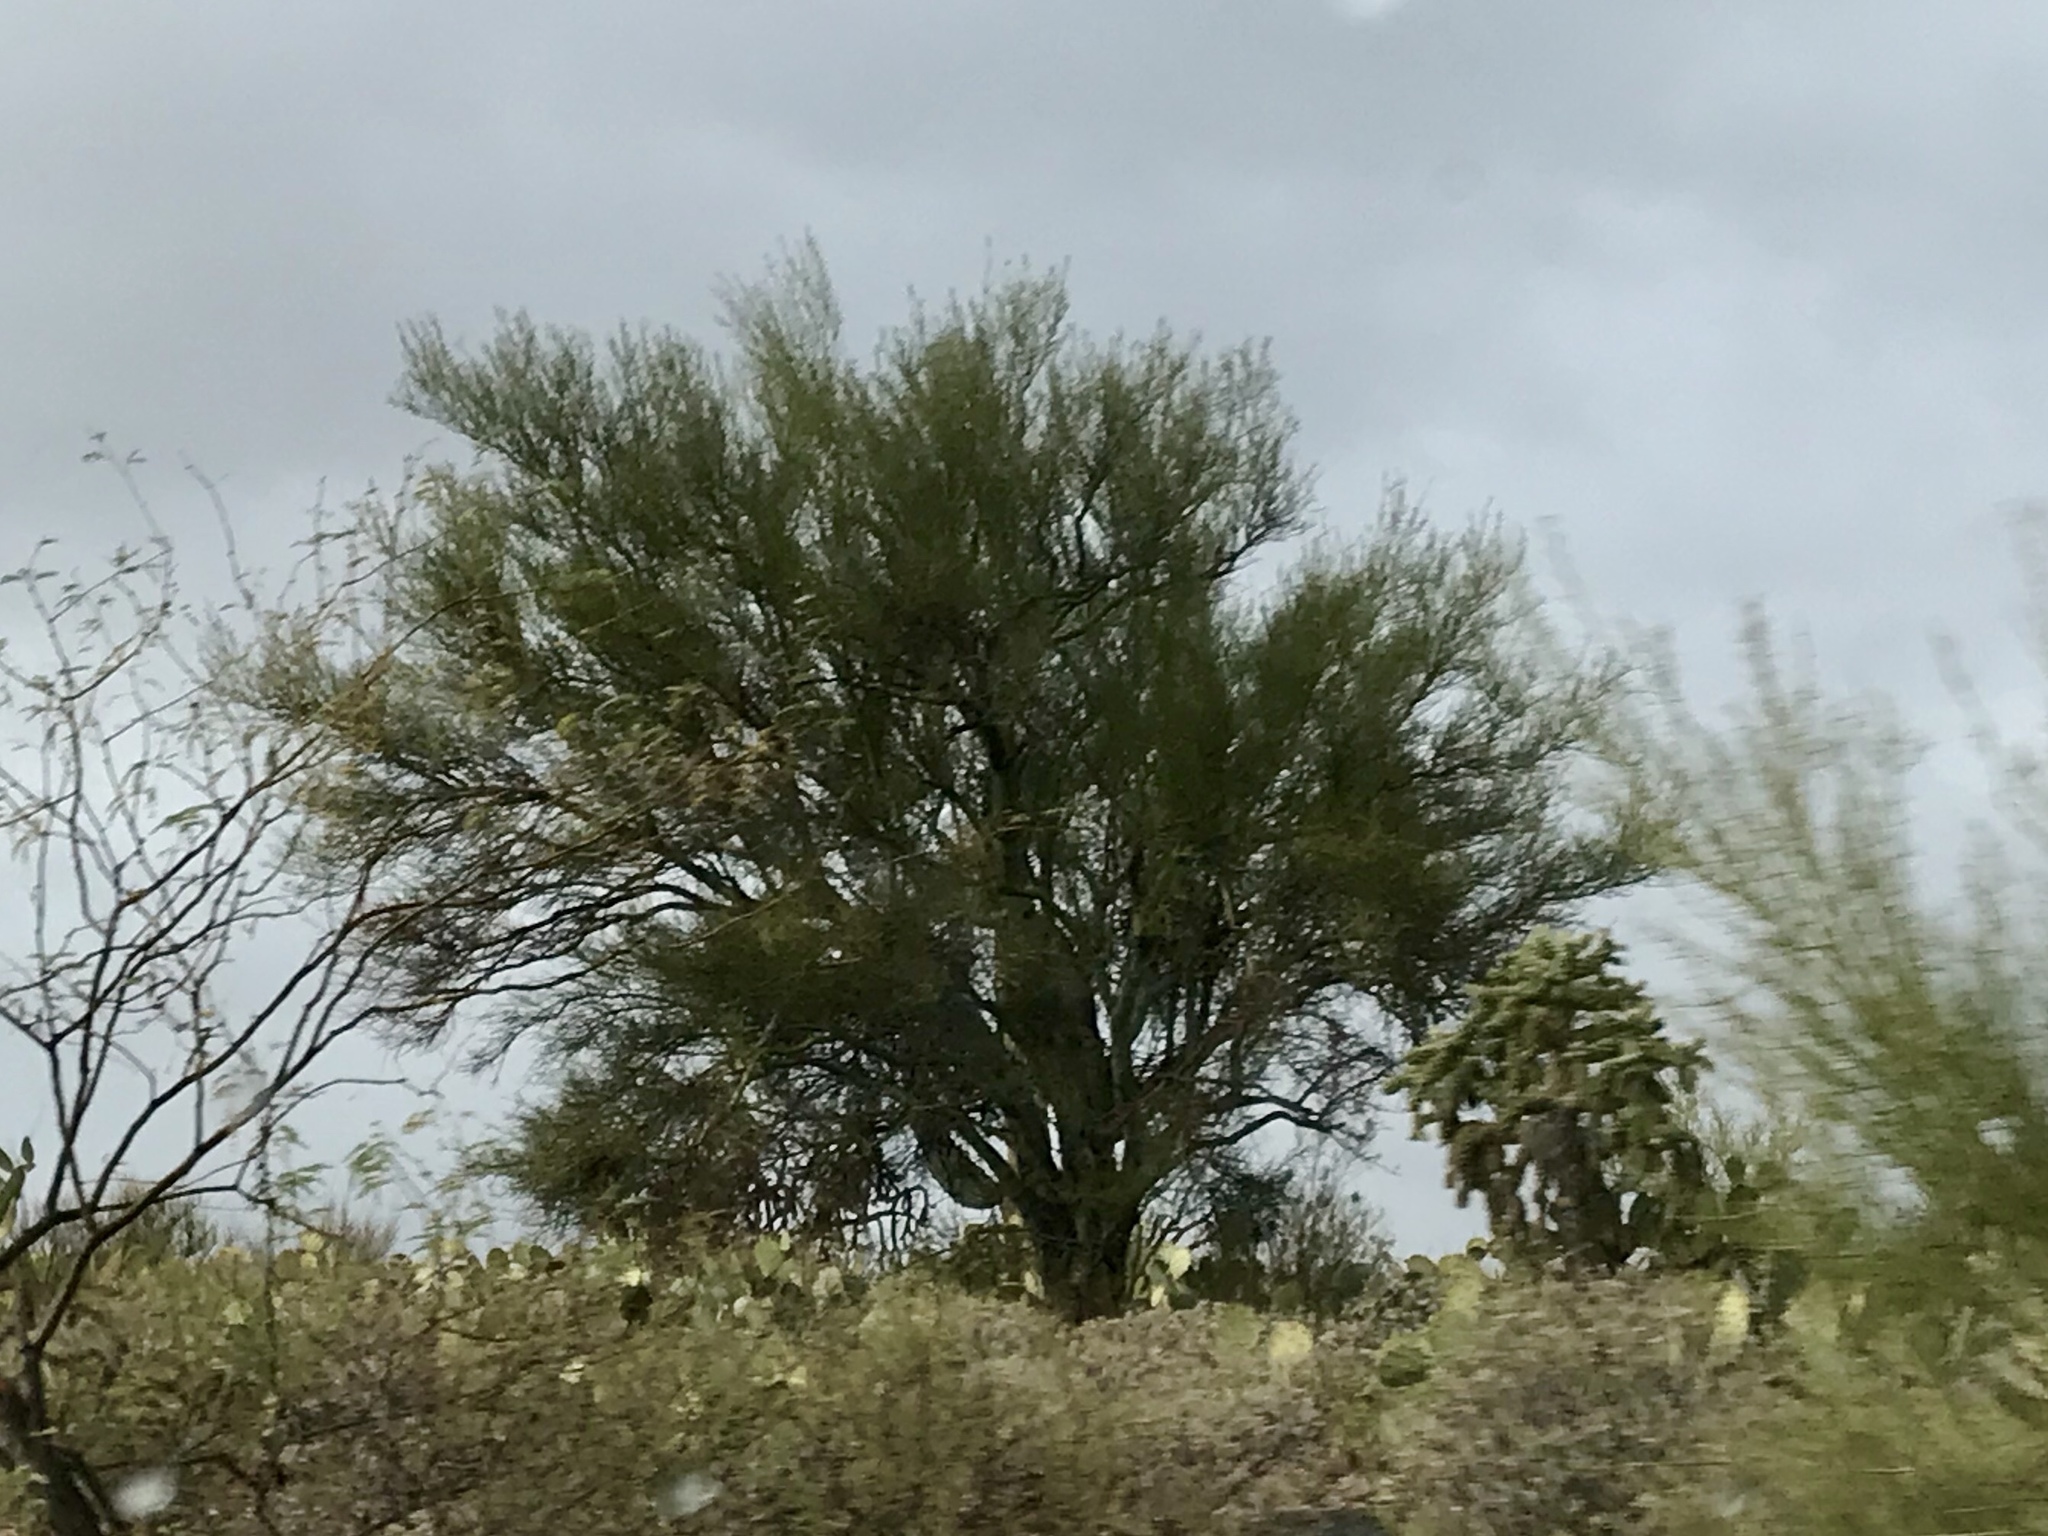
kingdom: Plantae
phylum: Tracheophyta
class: Magnoliopsida
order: Fabales
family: Fabaceae
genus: Parkinsonia
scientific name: Parkinsonia microphylla
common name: Yellow paloverde
